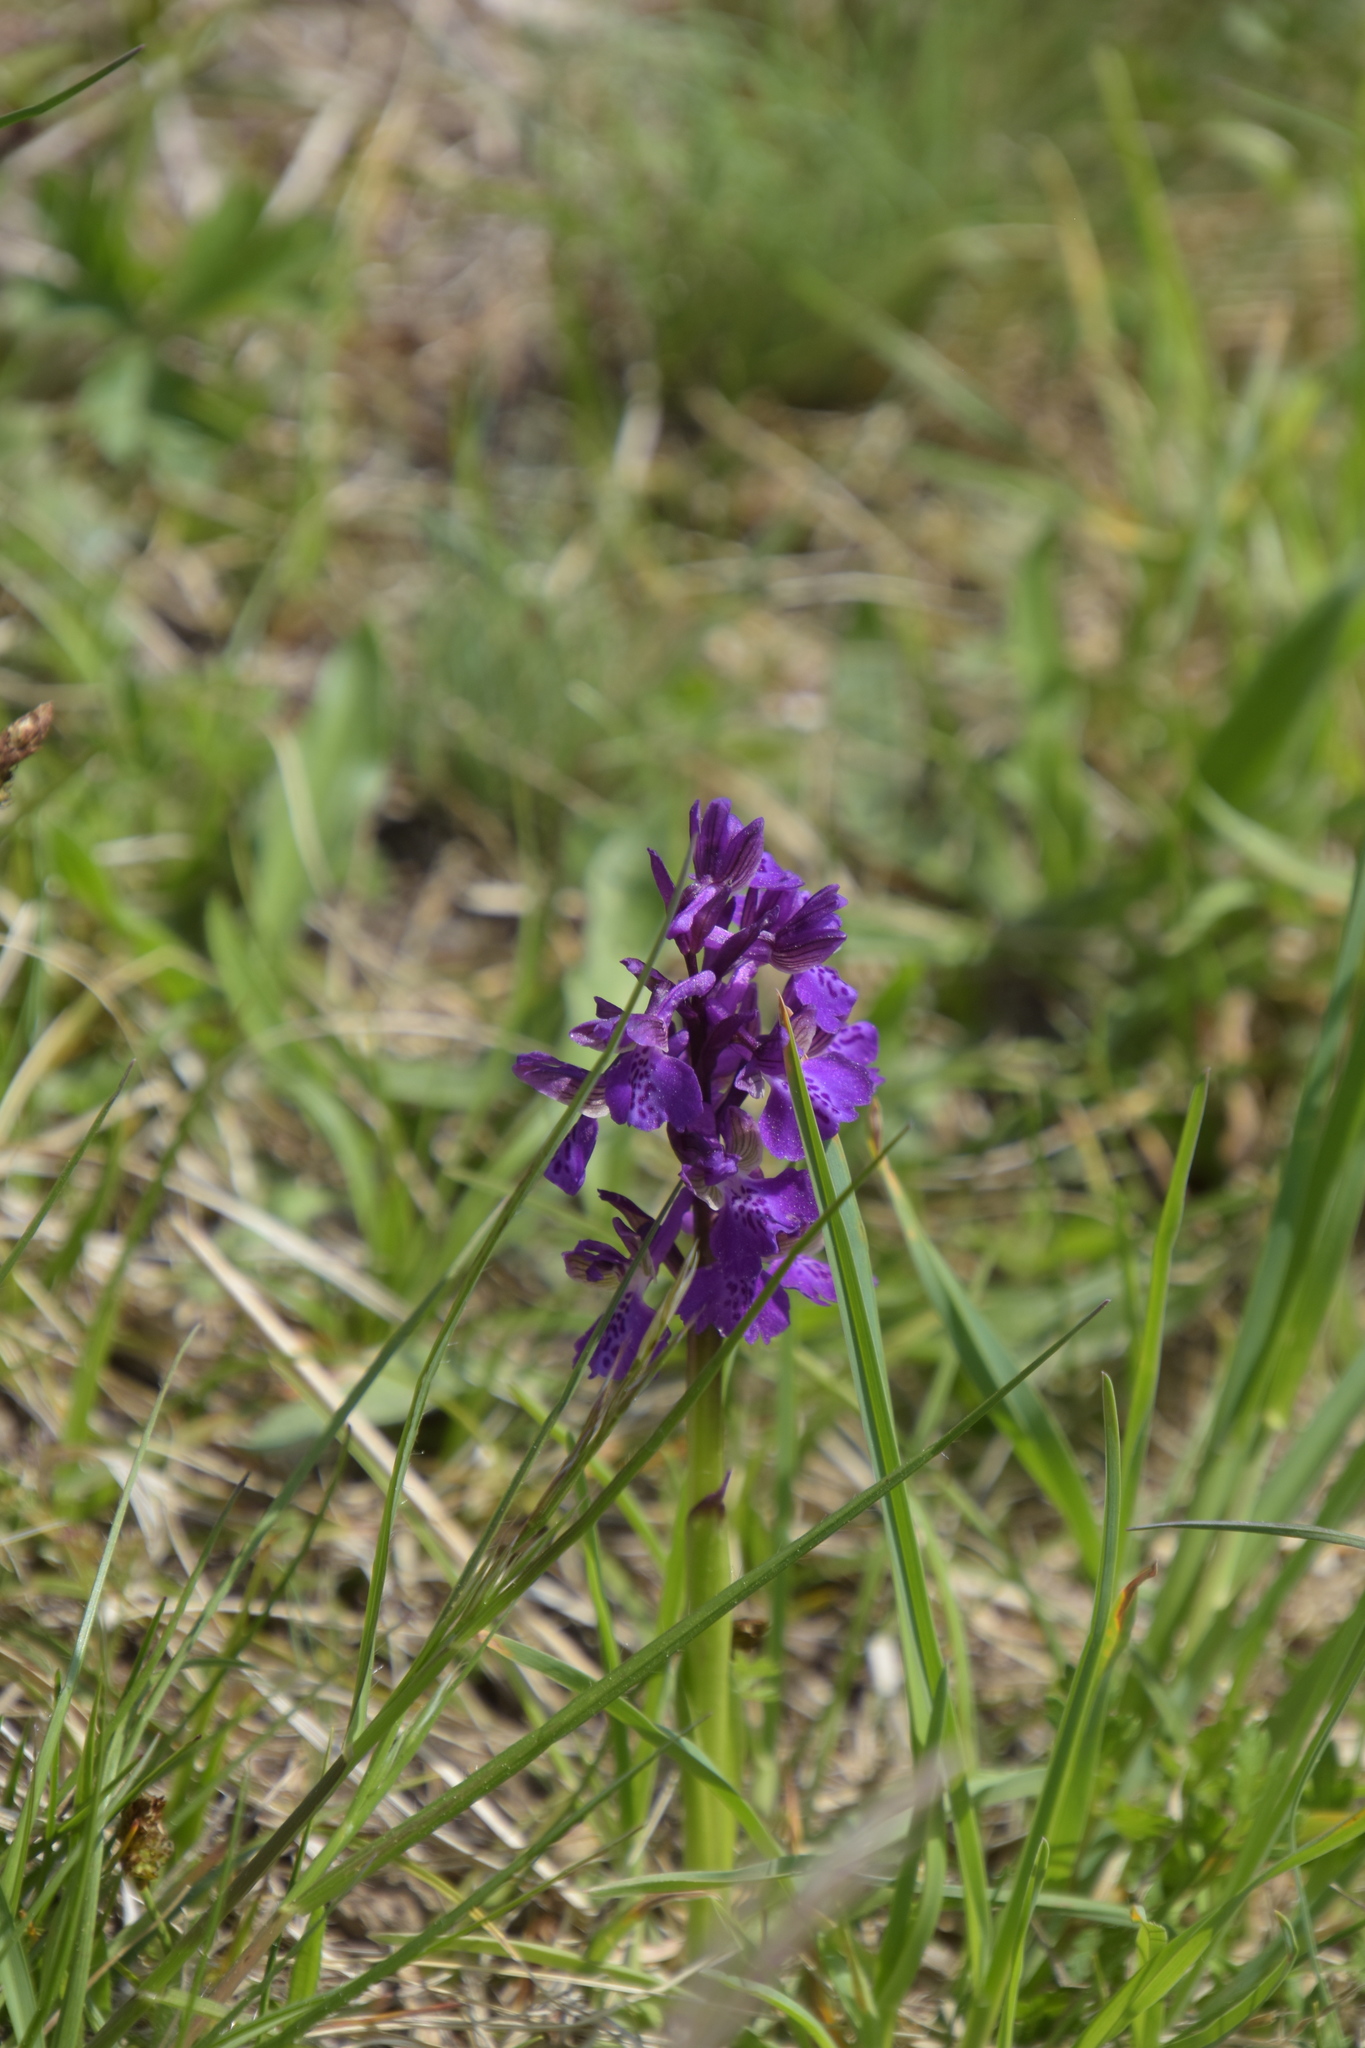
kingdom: Plantae
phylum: Tracheophyta
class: Liliopsida
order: Asparagales
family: Orchidaceae
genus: Anacamptis
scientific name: Anacamptis morio
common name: Green-winged orchid
